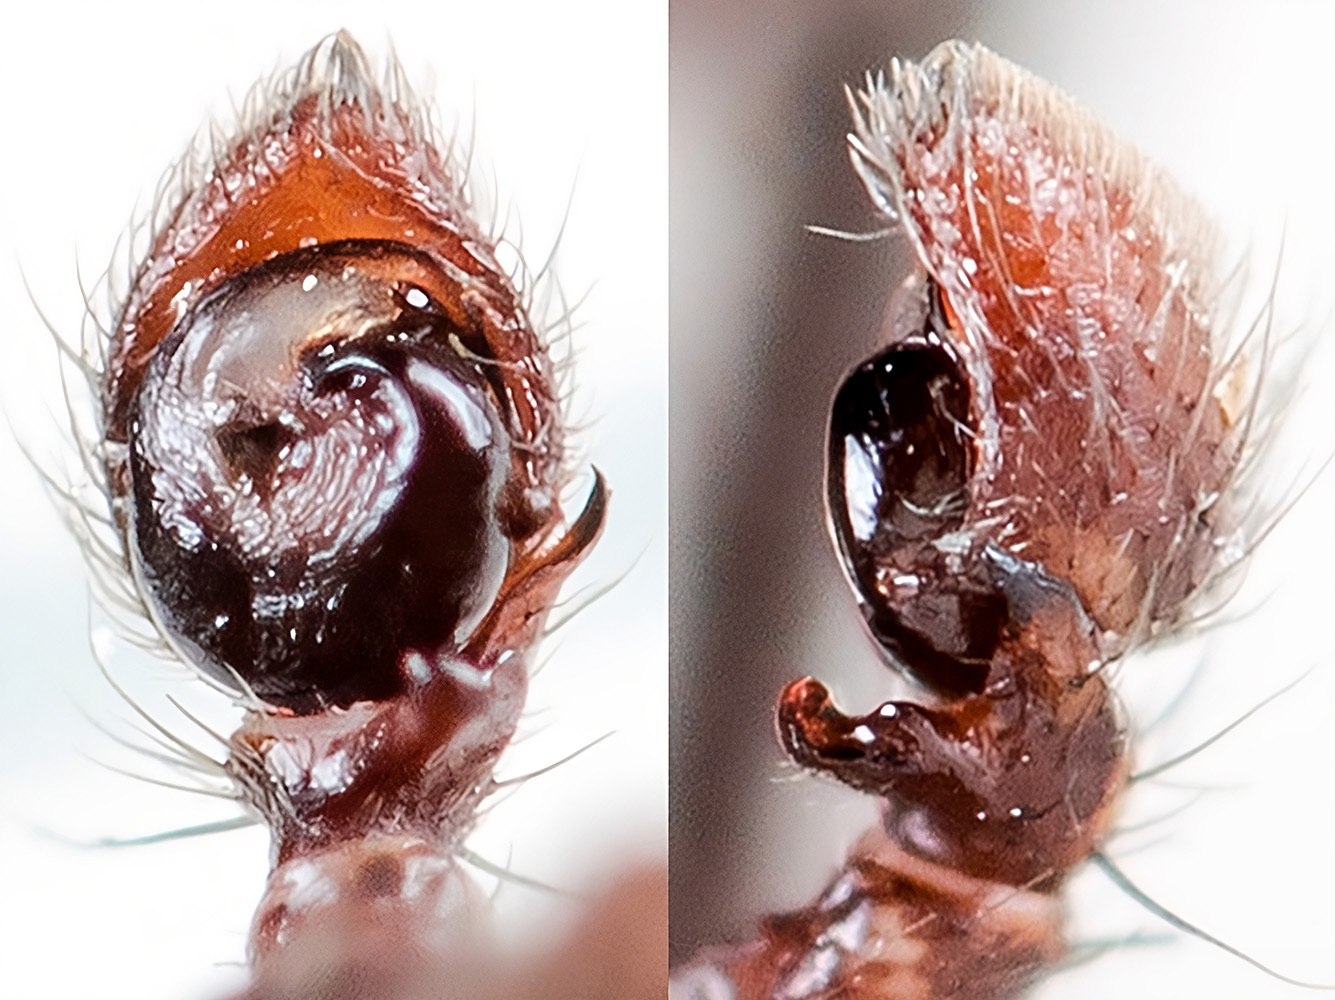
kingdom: Animalia
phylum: Arthropoda
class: Arachnida
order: Araneae
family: Thomisidae
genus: Xysticus
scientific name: Xysticus pseudoluctuosus
